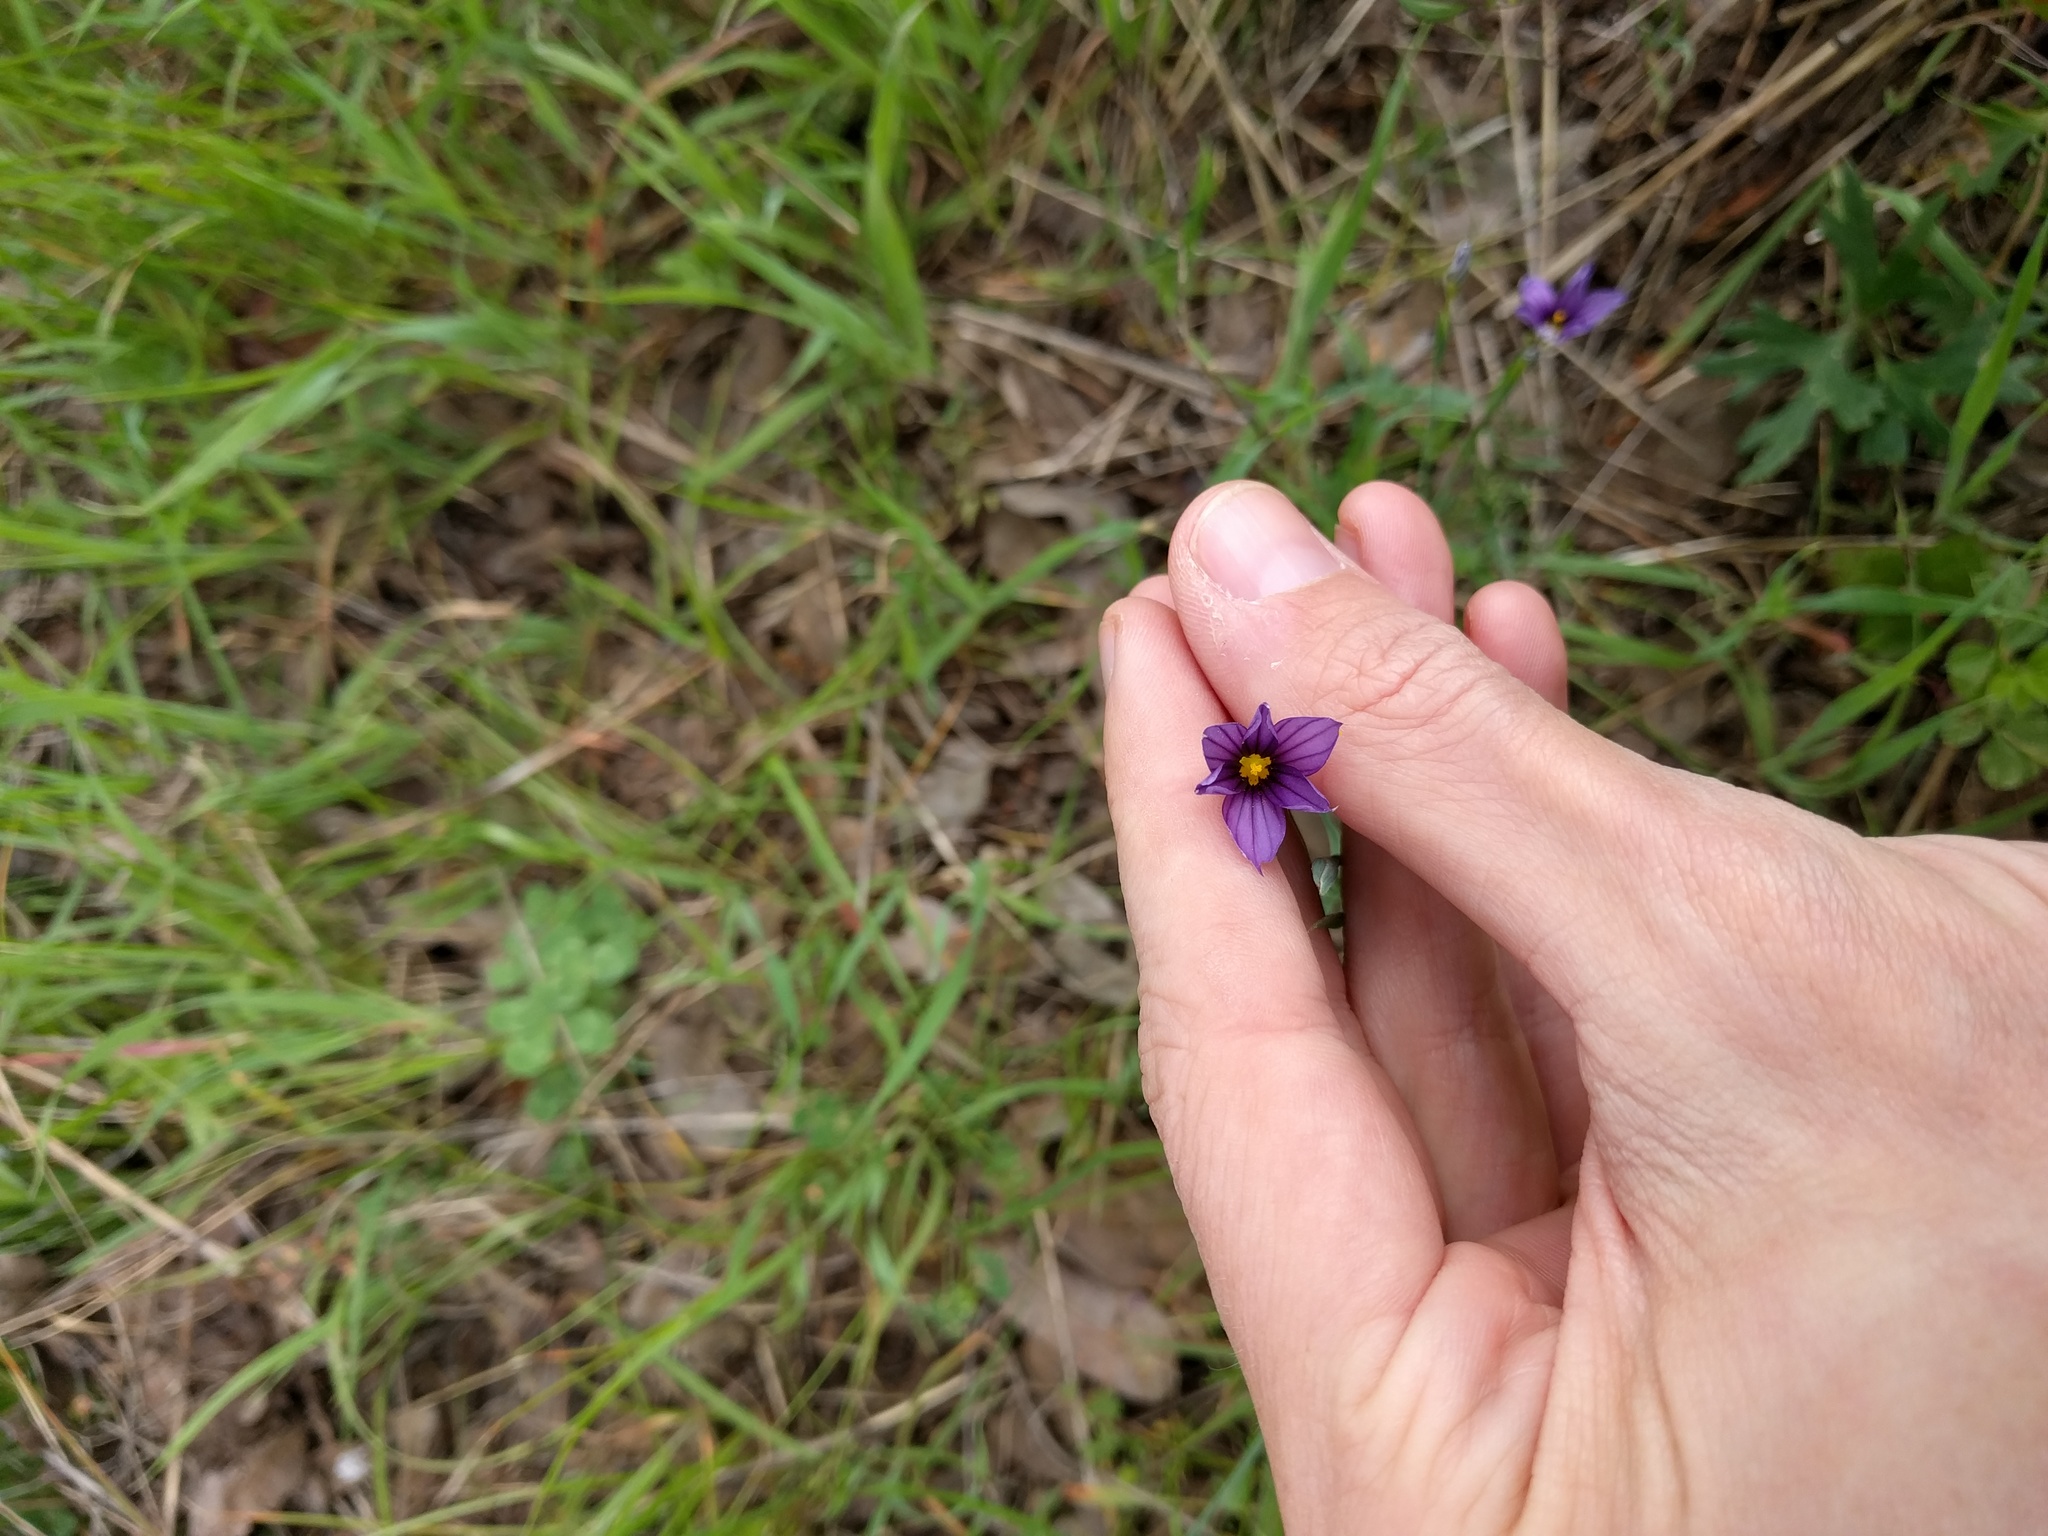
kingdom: Plantae
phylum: Tracheophyta
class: Liliopsida
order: Asparagales
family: Iridaceae
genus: Sisyrinchium
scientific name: Sisyrinchium bellum
